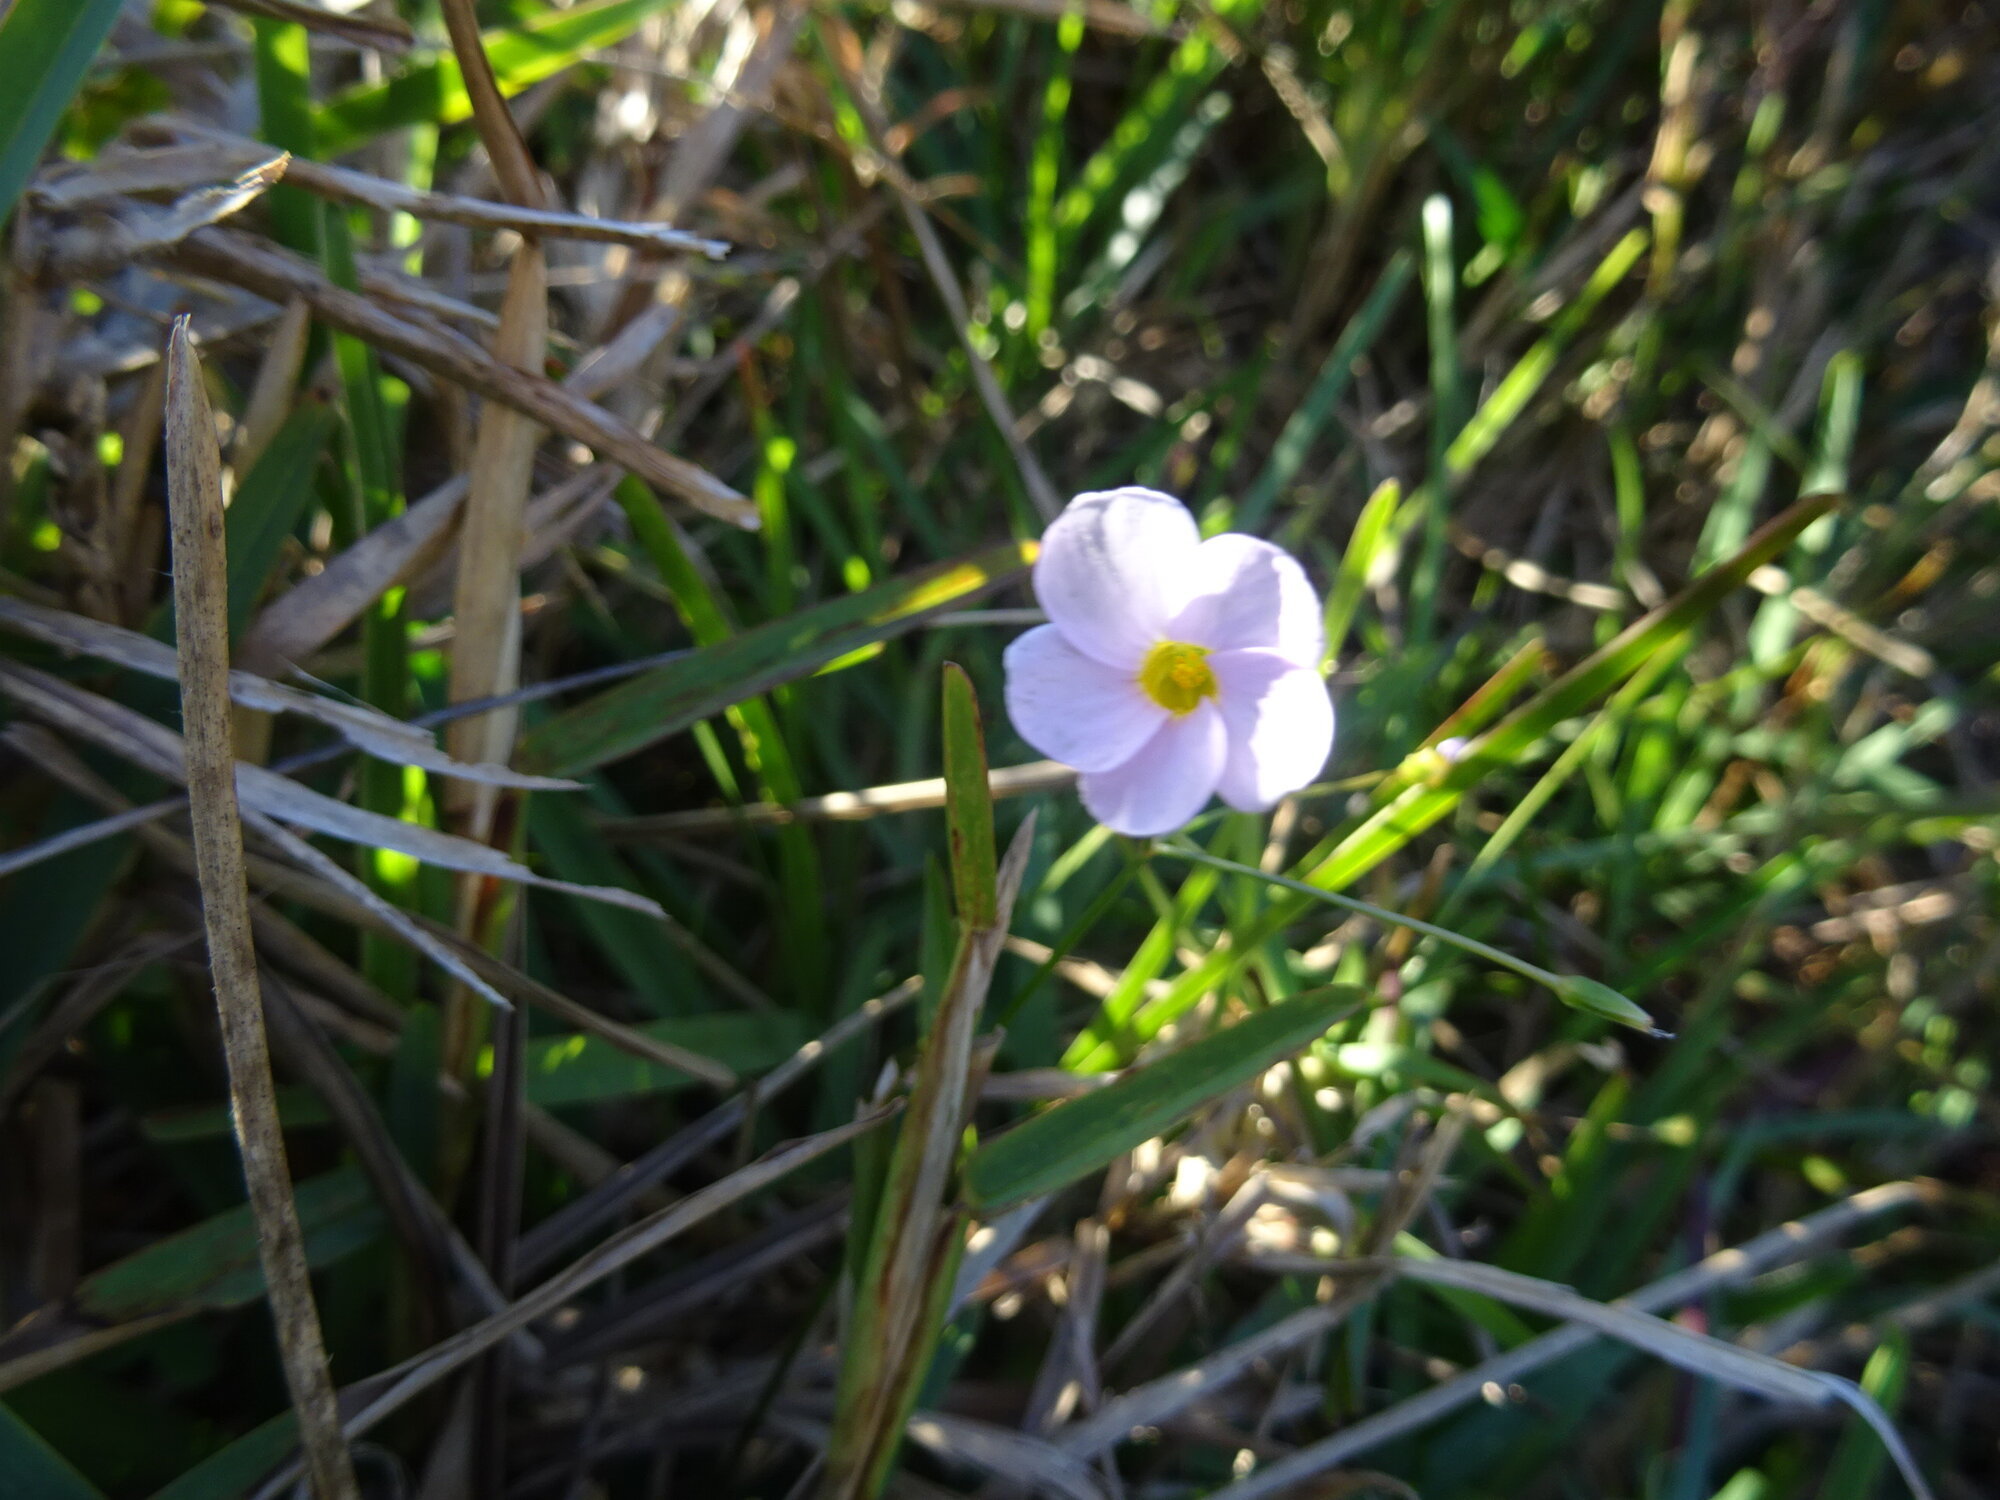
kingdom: Plantae
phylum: Tracheophyta
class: Magnoliopsida
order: Oxalidales
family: Oxalidaceae
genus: Oxalis
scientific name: Oxalis caprina
